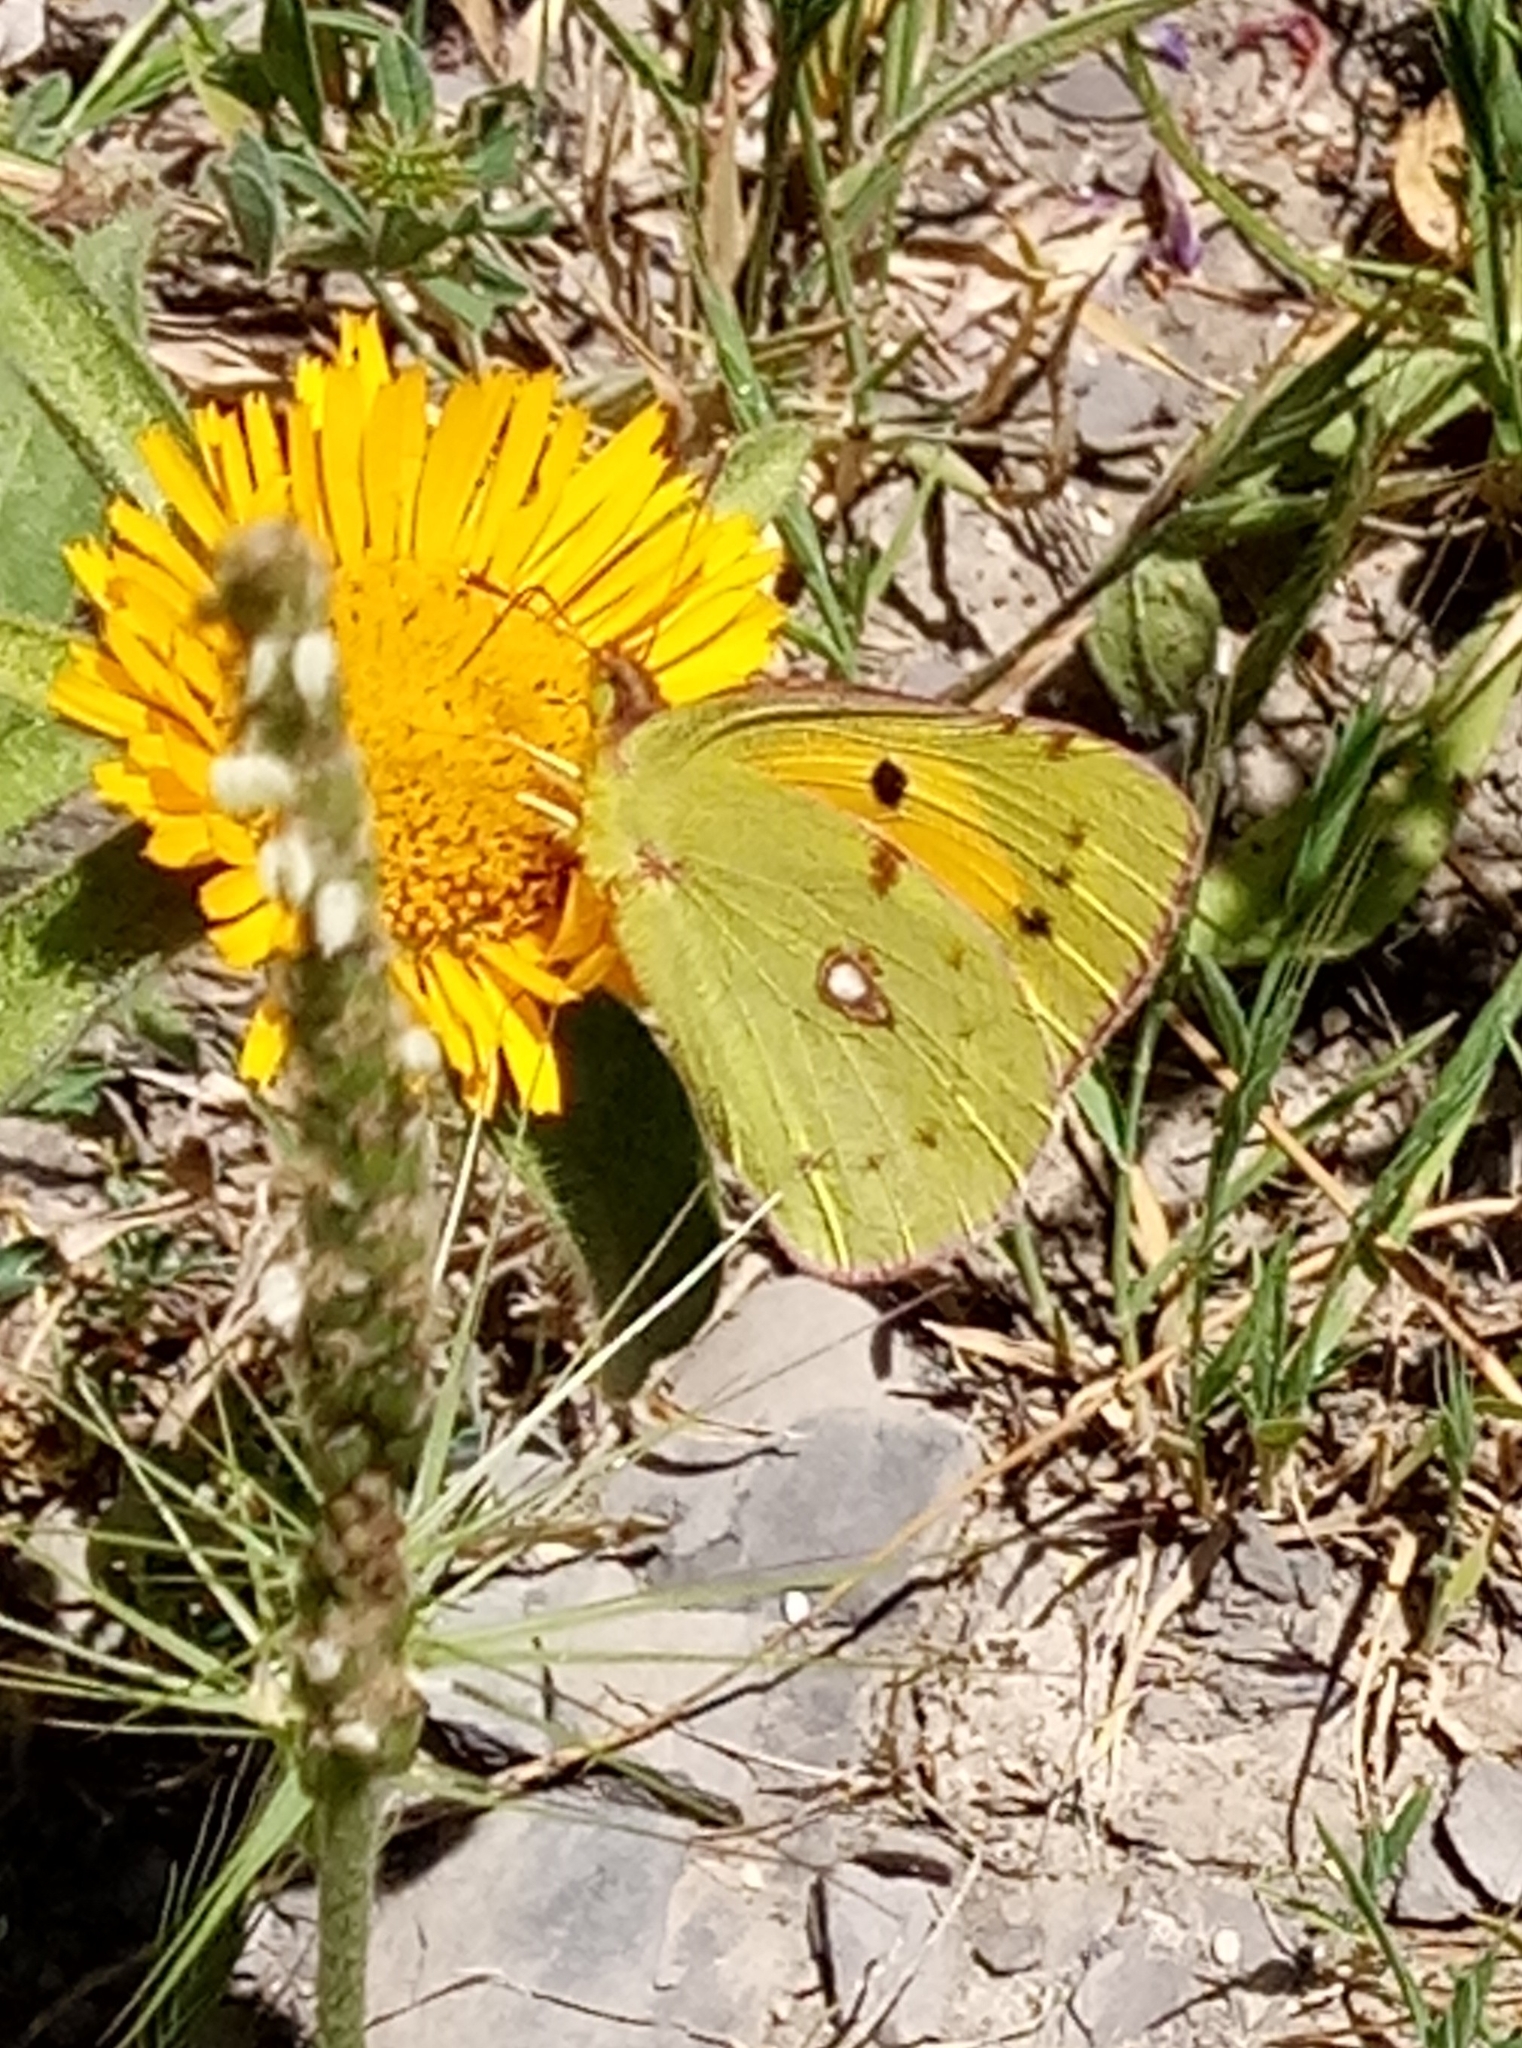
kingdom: Animalia
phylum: Arthropoda
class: Insecta
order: Lepidoptera
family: Pieridae
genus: Colias
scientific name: Colias croceus
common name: Clouded yellow
